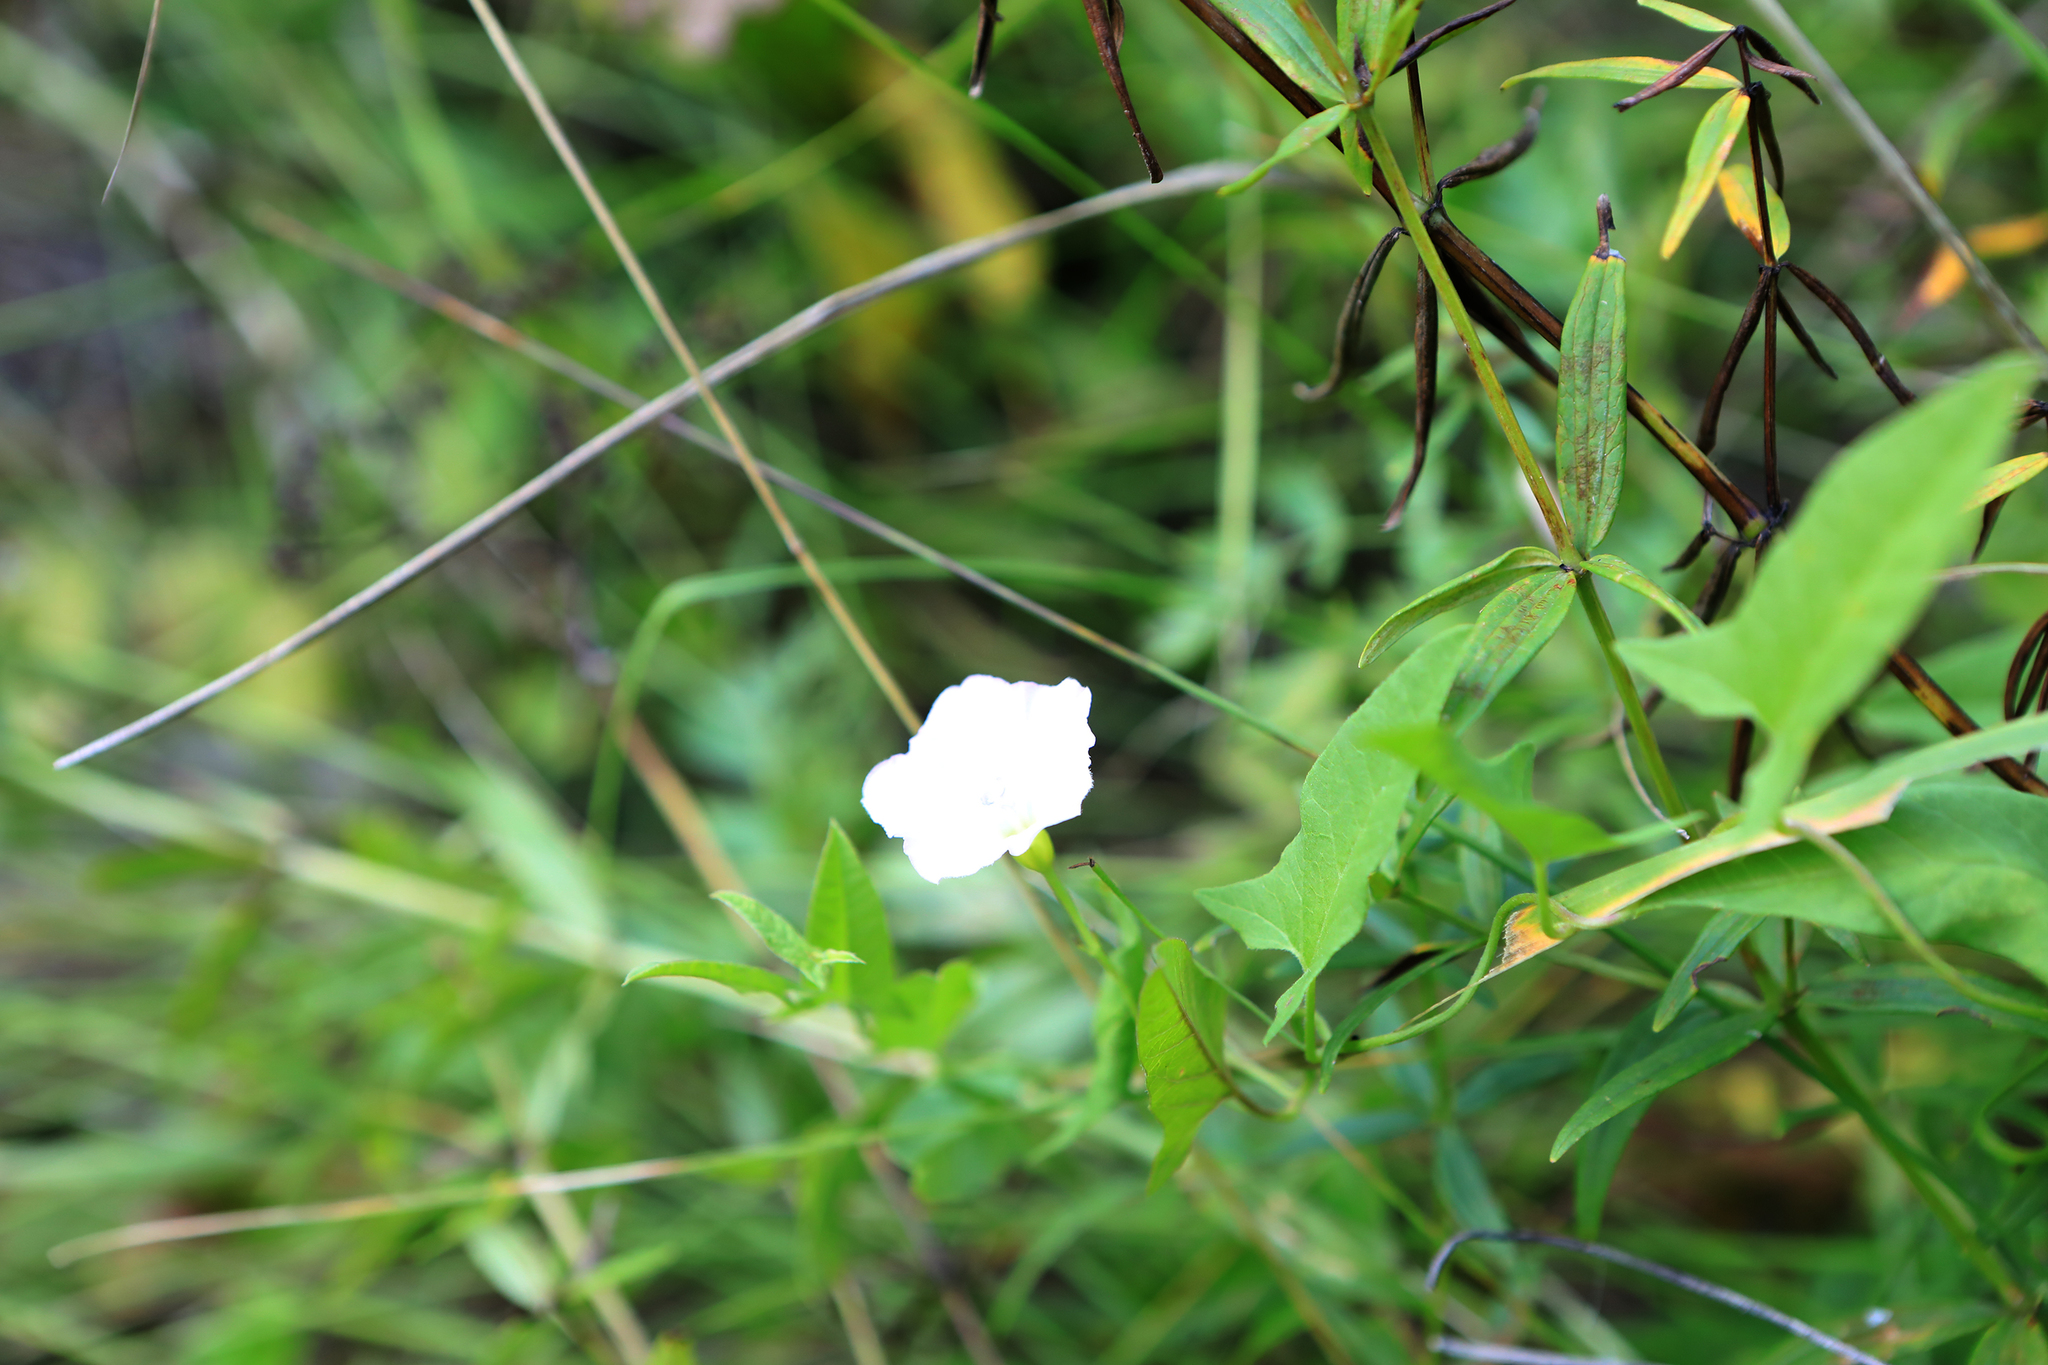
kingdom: Plantae
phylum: Tracheophyta
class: Magnoliopsida
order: Solanales
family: Convolvulaceae
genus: Calystegia
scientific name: Calystegia sepium
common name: Hedge bindweed
